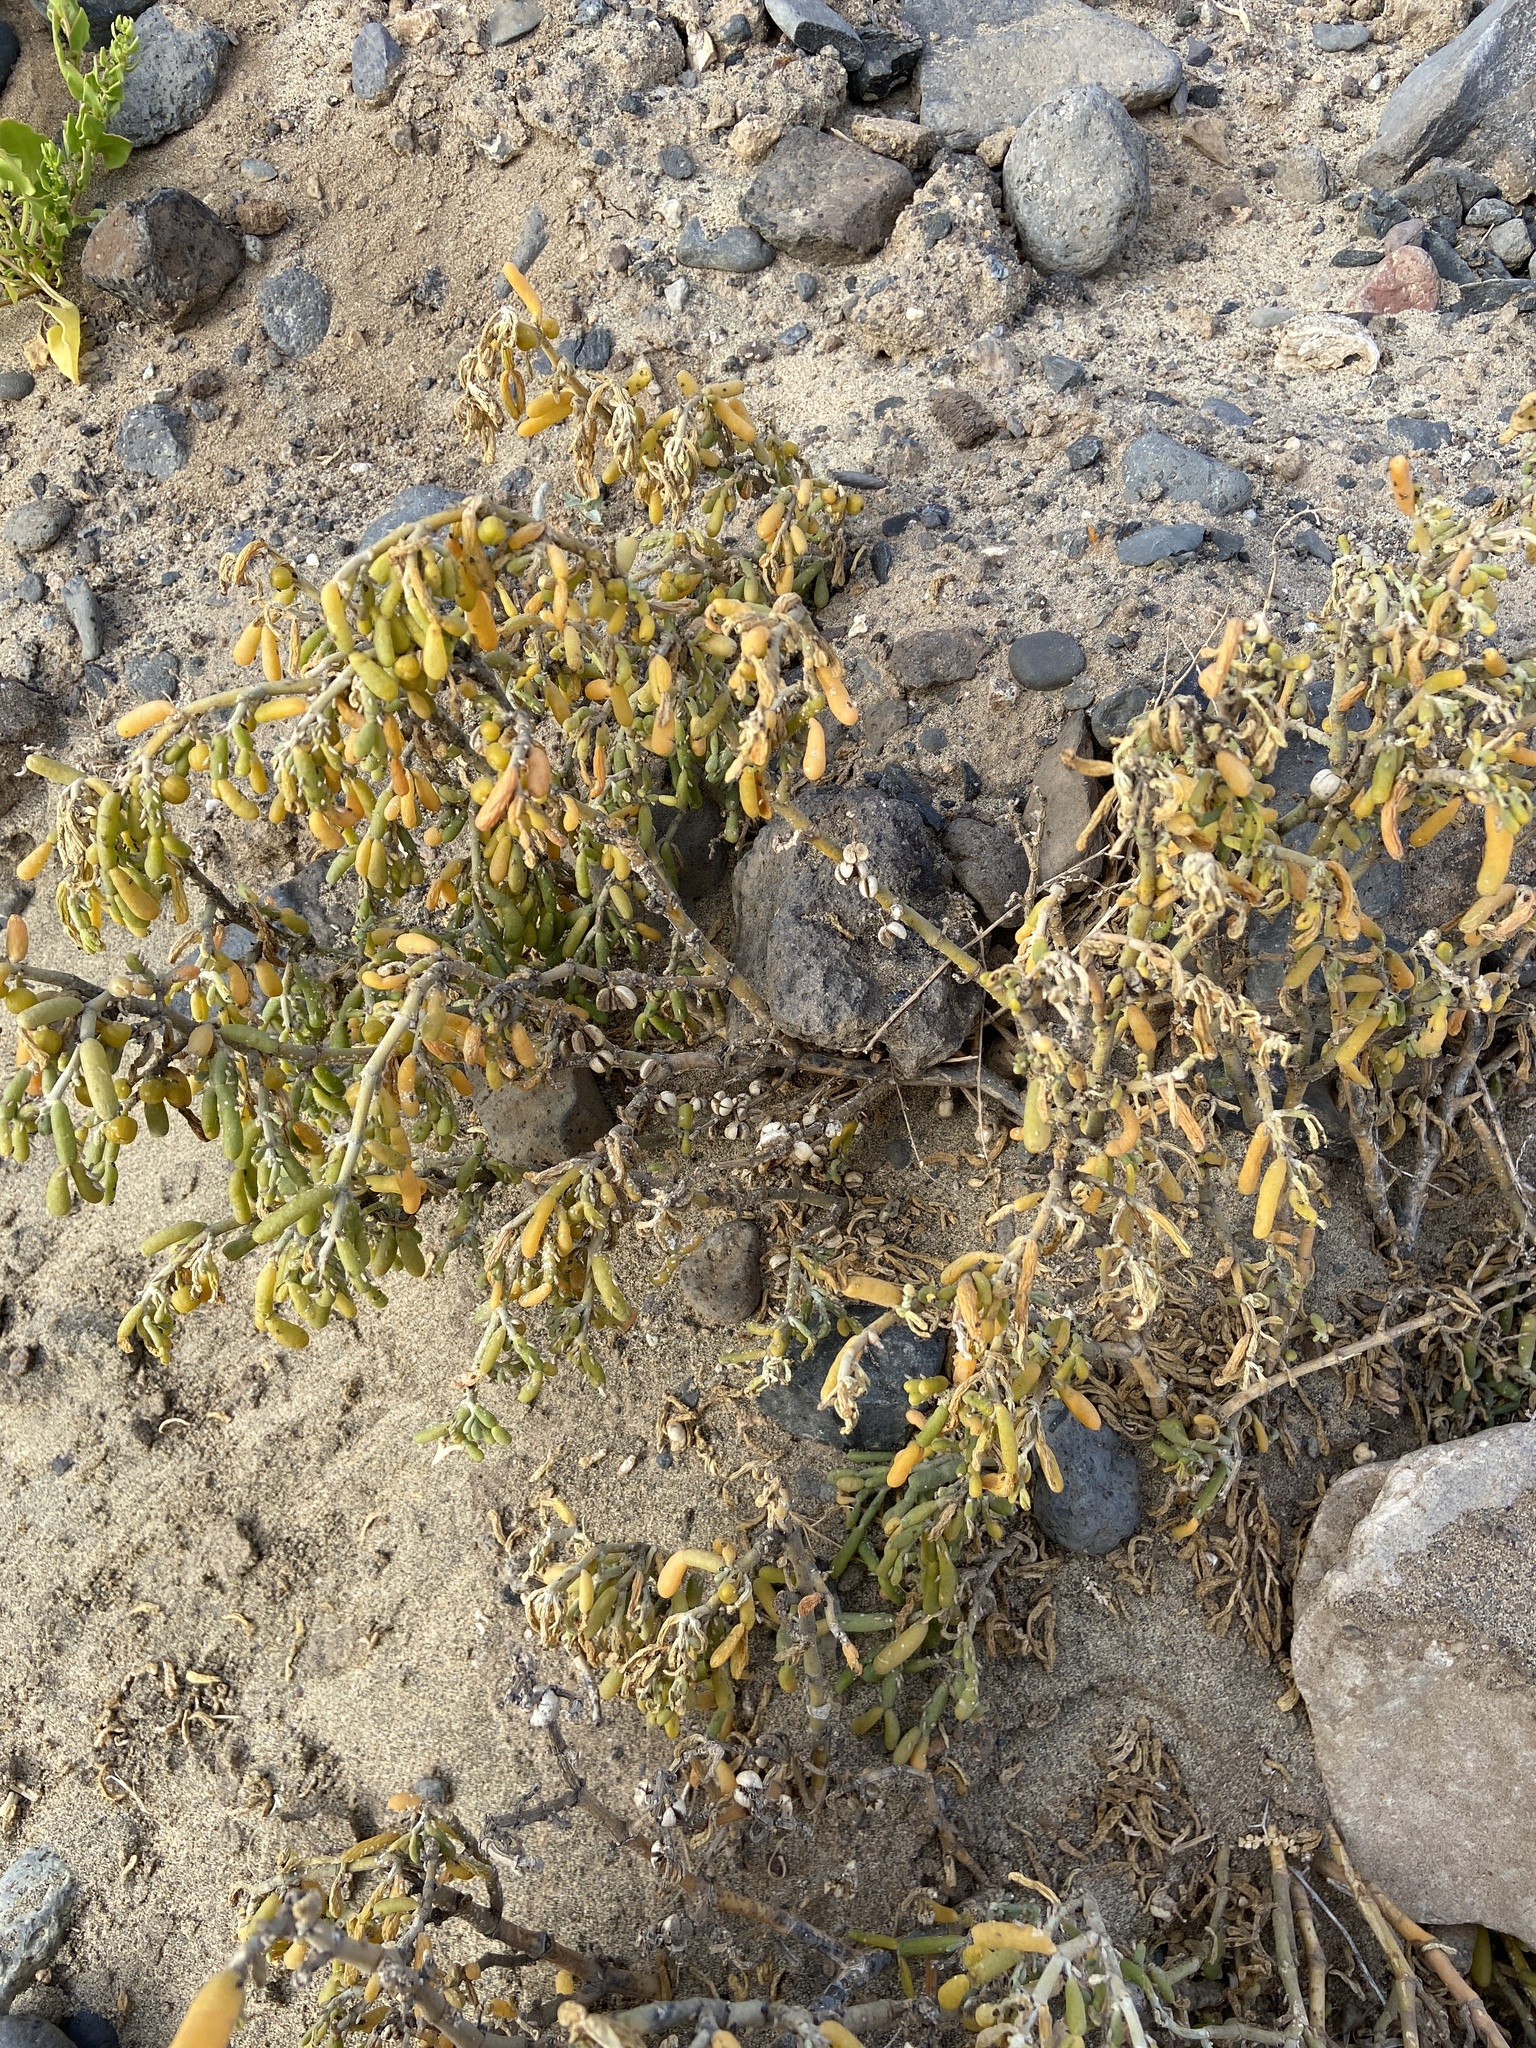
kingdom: Plantae
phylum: Tracheophyta
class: Magnoliopsida
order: Zygophyllales
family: Zygophyllaceae
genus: Tetraena
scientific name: Tetraena fontanesii
